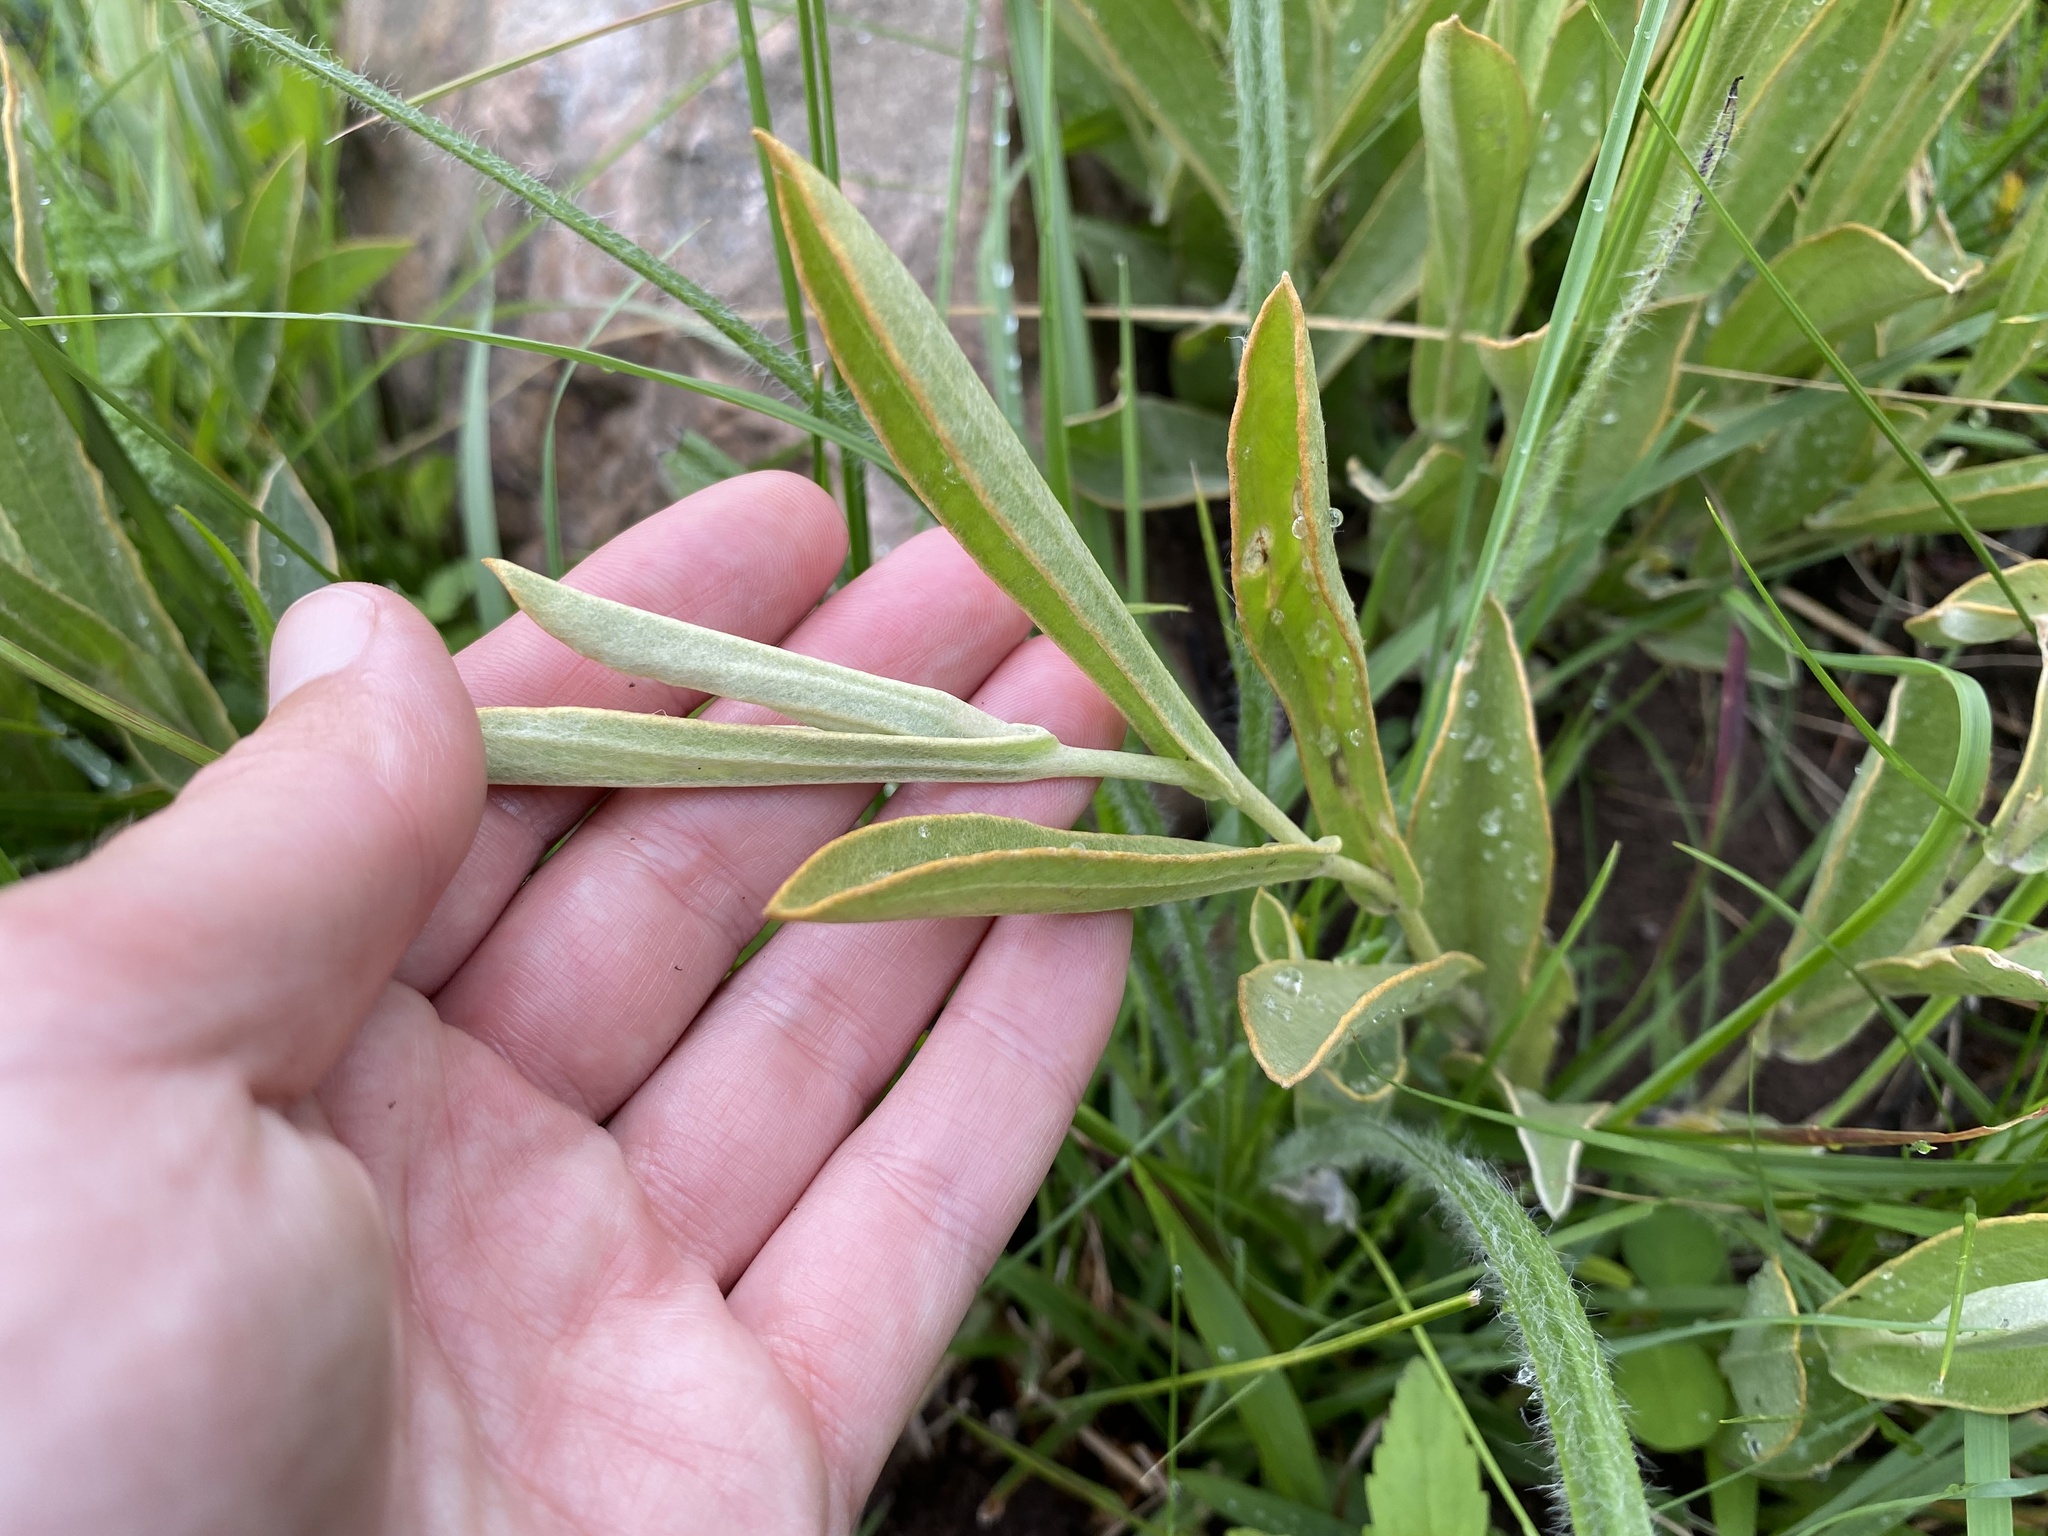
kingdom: Plantae
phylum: Tracheophyta
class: Magnoliopsida
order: Asterales
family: Asteraceae
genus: Helichrysum
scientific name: Helichrysum pannosum
